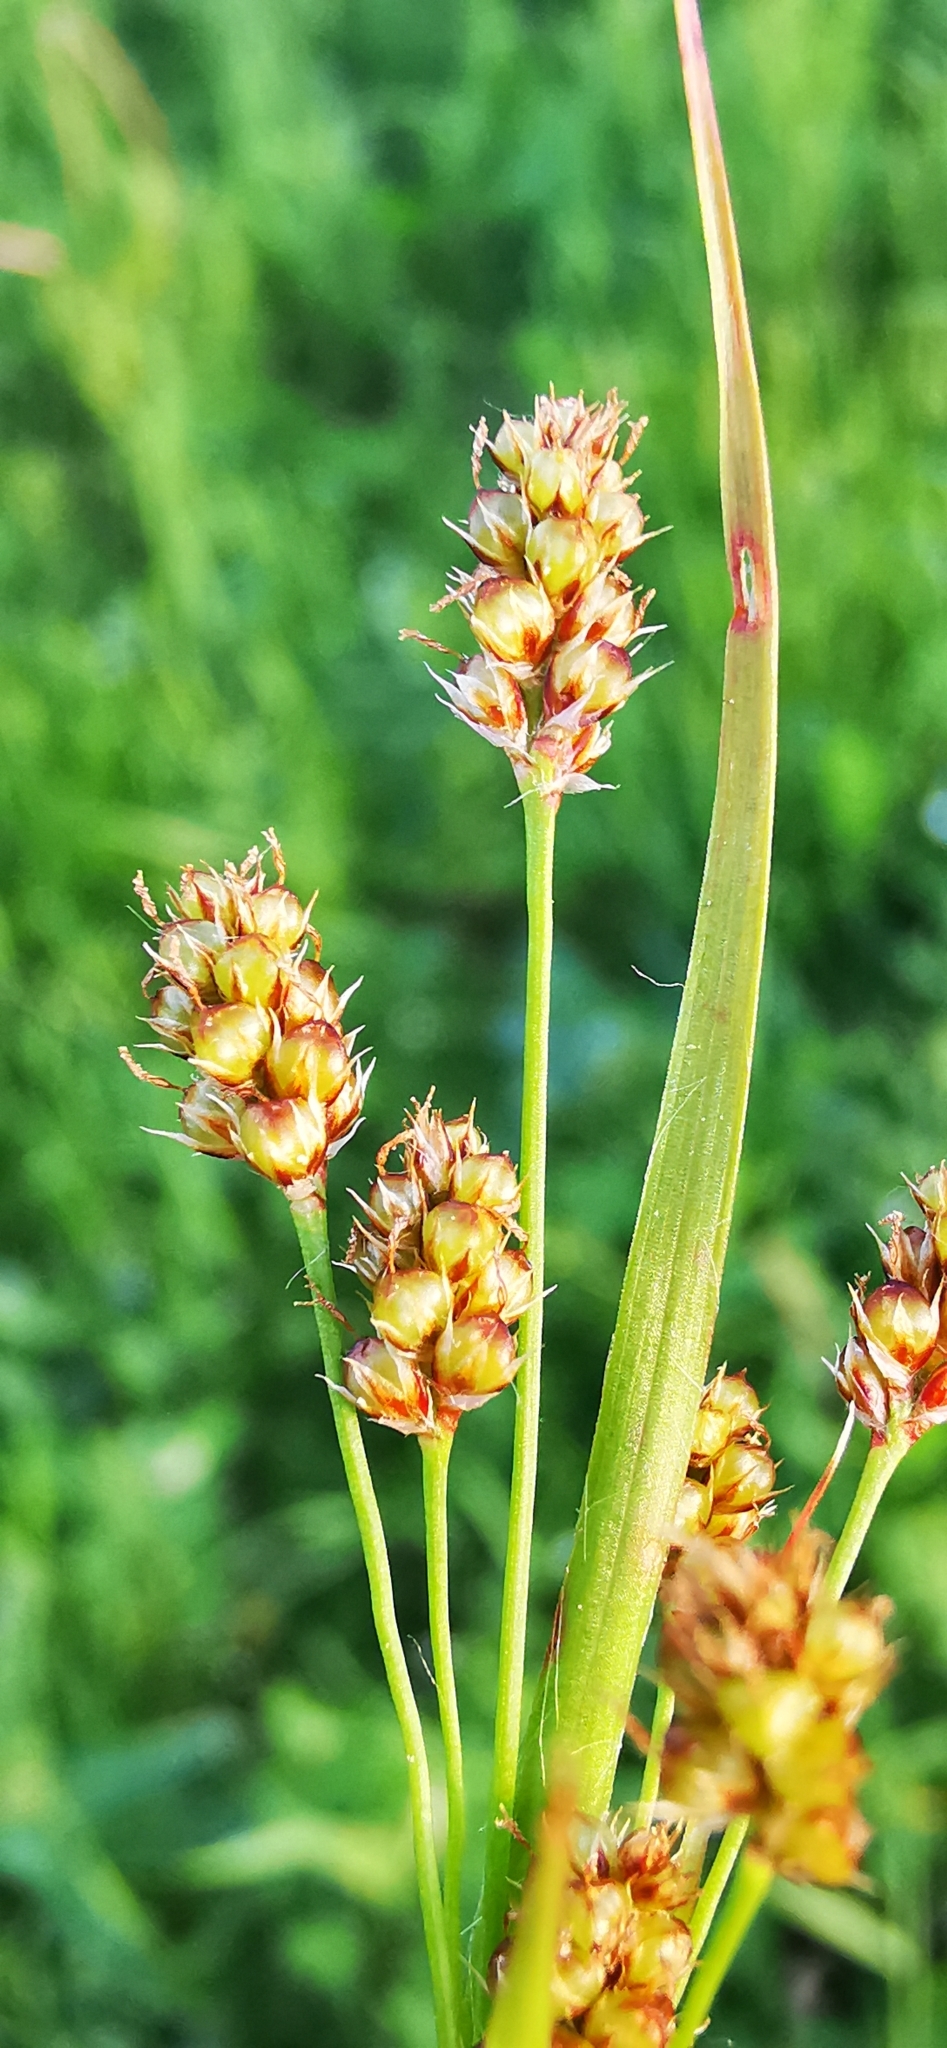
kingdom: Plantae
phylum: Tracheophyta
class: Liliopsida
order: Poales
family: Juncaceae
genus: Luzula
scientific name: Luzula multiflora
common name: Heath wood-rush
